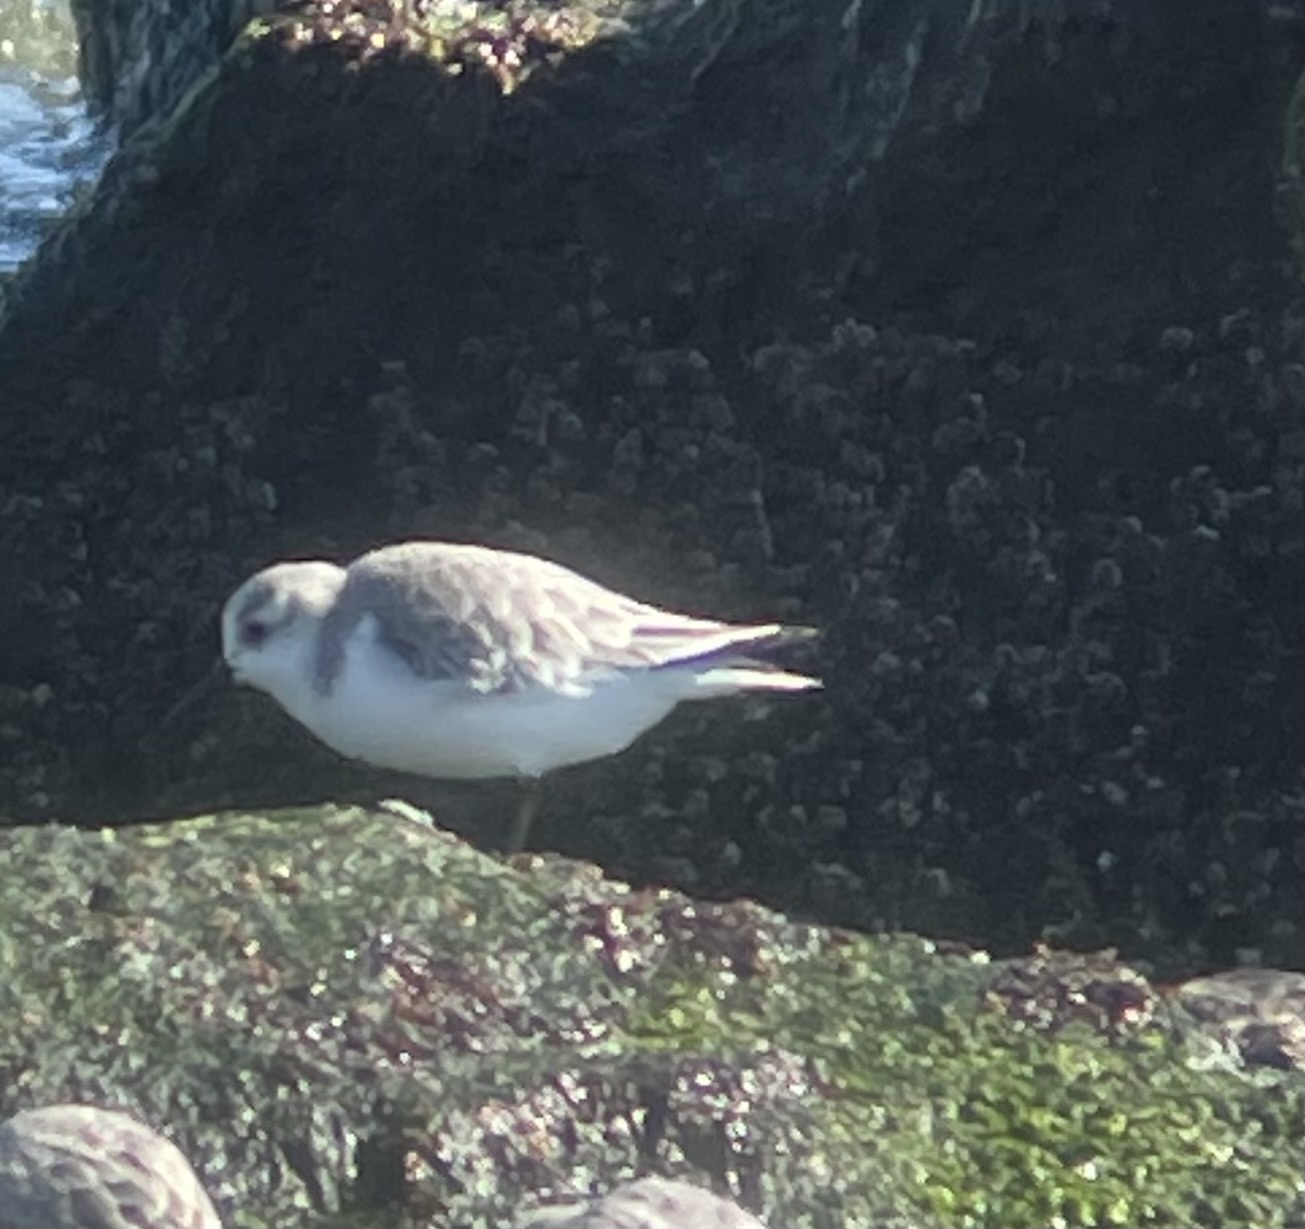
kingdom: Animalia
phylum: Chordata
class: Aves
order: Charadriiformes
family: Scolopacidae
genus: Calidris
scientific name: Calidris alba
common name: Sanderling
